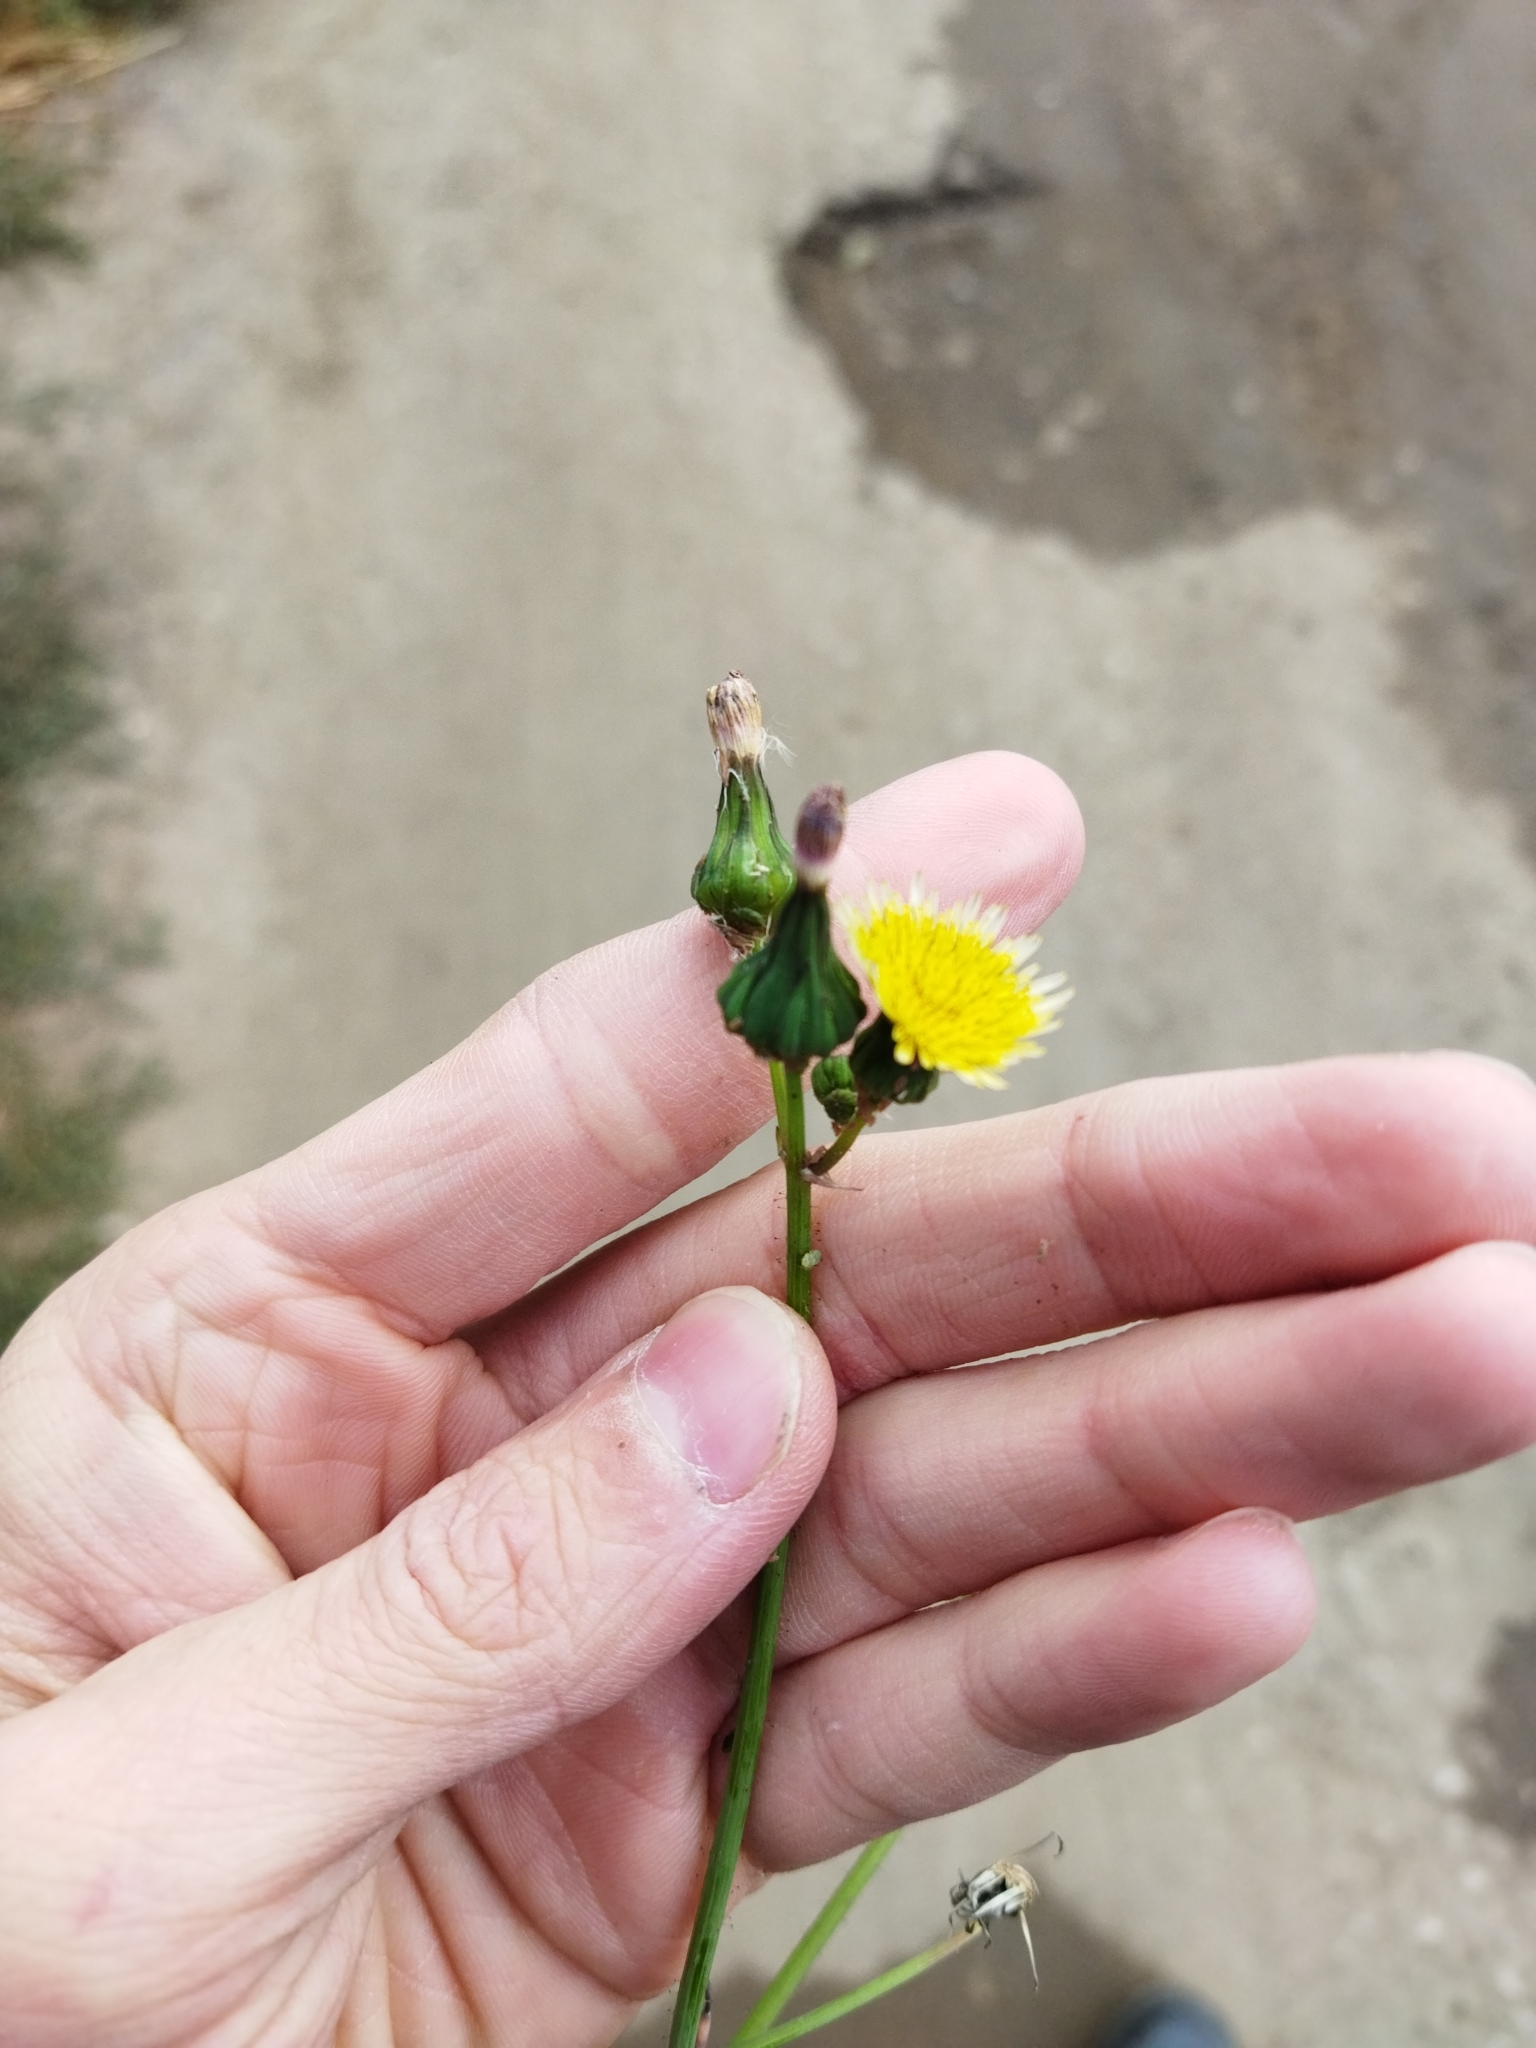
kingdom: Plantae
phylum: Tracheophyta
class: Magnoliopsida
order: Asterales
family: Asteraceae
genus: Sonchus
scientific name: Sonchus oleraceus
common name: Common sowthistle
